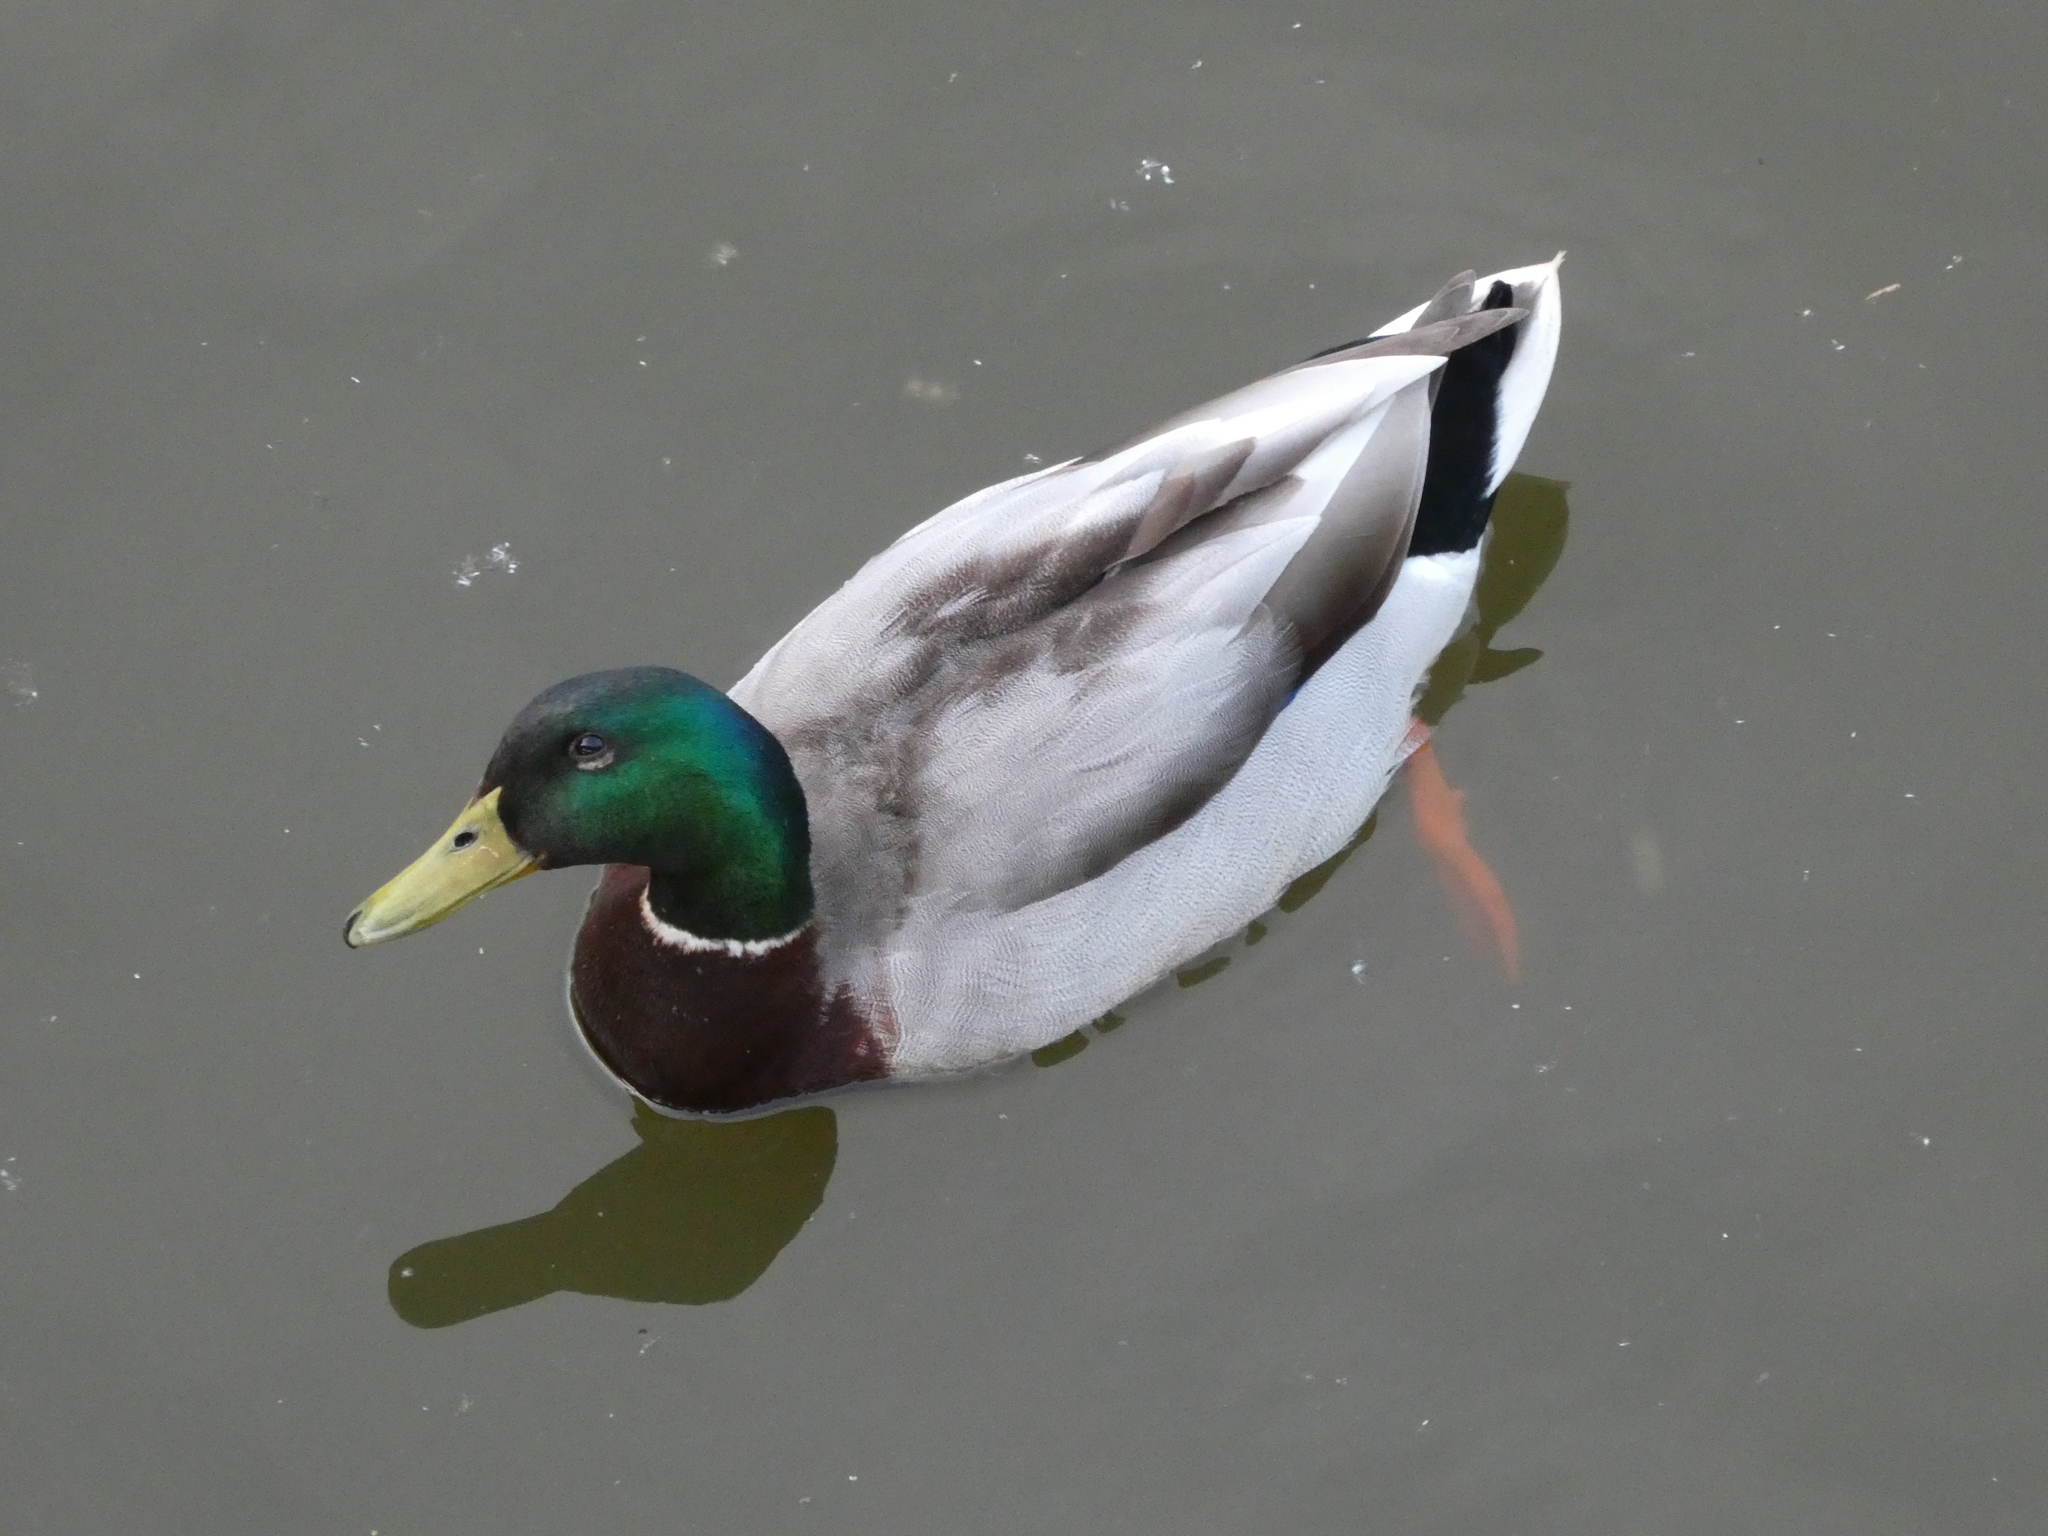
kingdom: Animalia
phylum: Chordata
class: Aves
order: Anseriformes
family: Anatidae
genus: Anas
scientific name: Anas platyrhynchos
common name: Mallard
